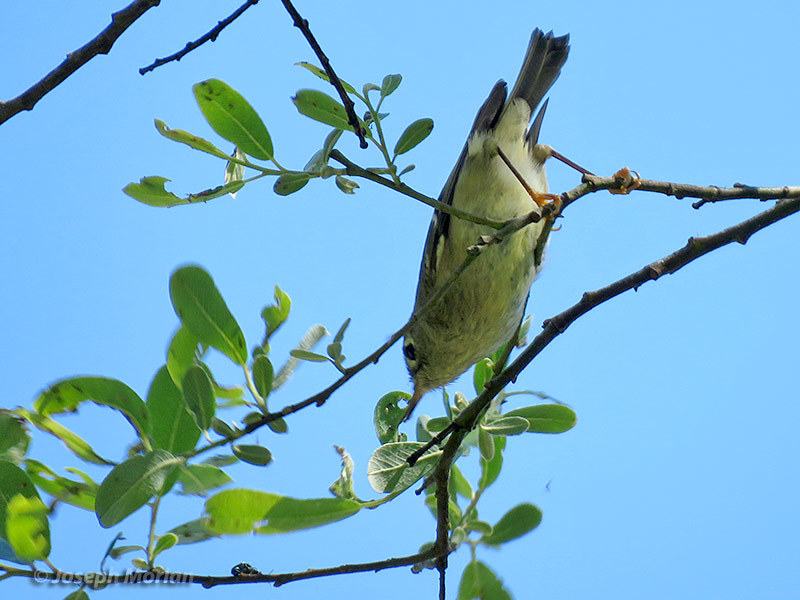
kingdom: Animalia
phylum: Chordata
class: Aves
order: Passeriformes
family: Regulidae
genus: Regulus
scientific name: Regulus calendula
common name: Ruby-crowned kinglet
